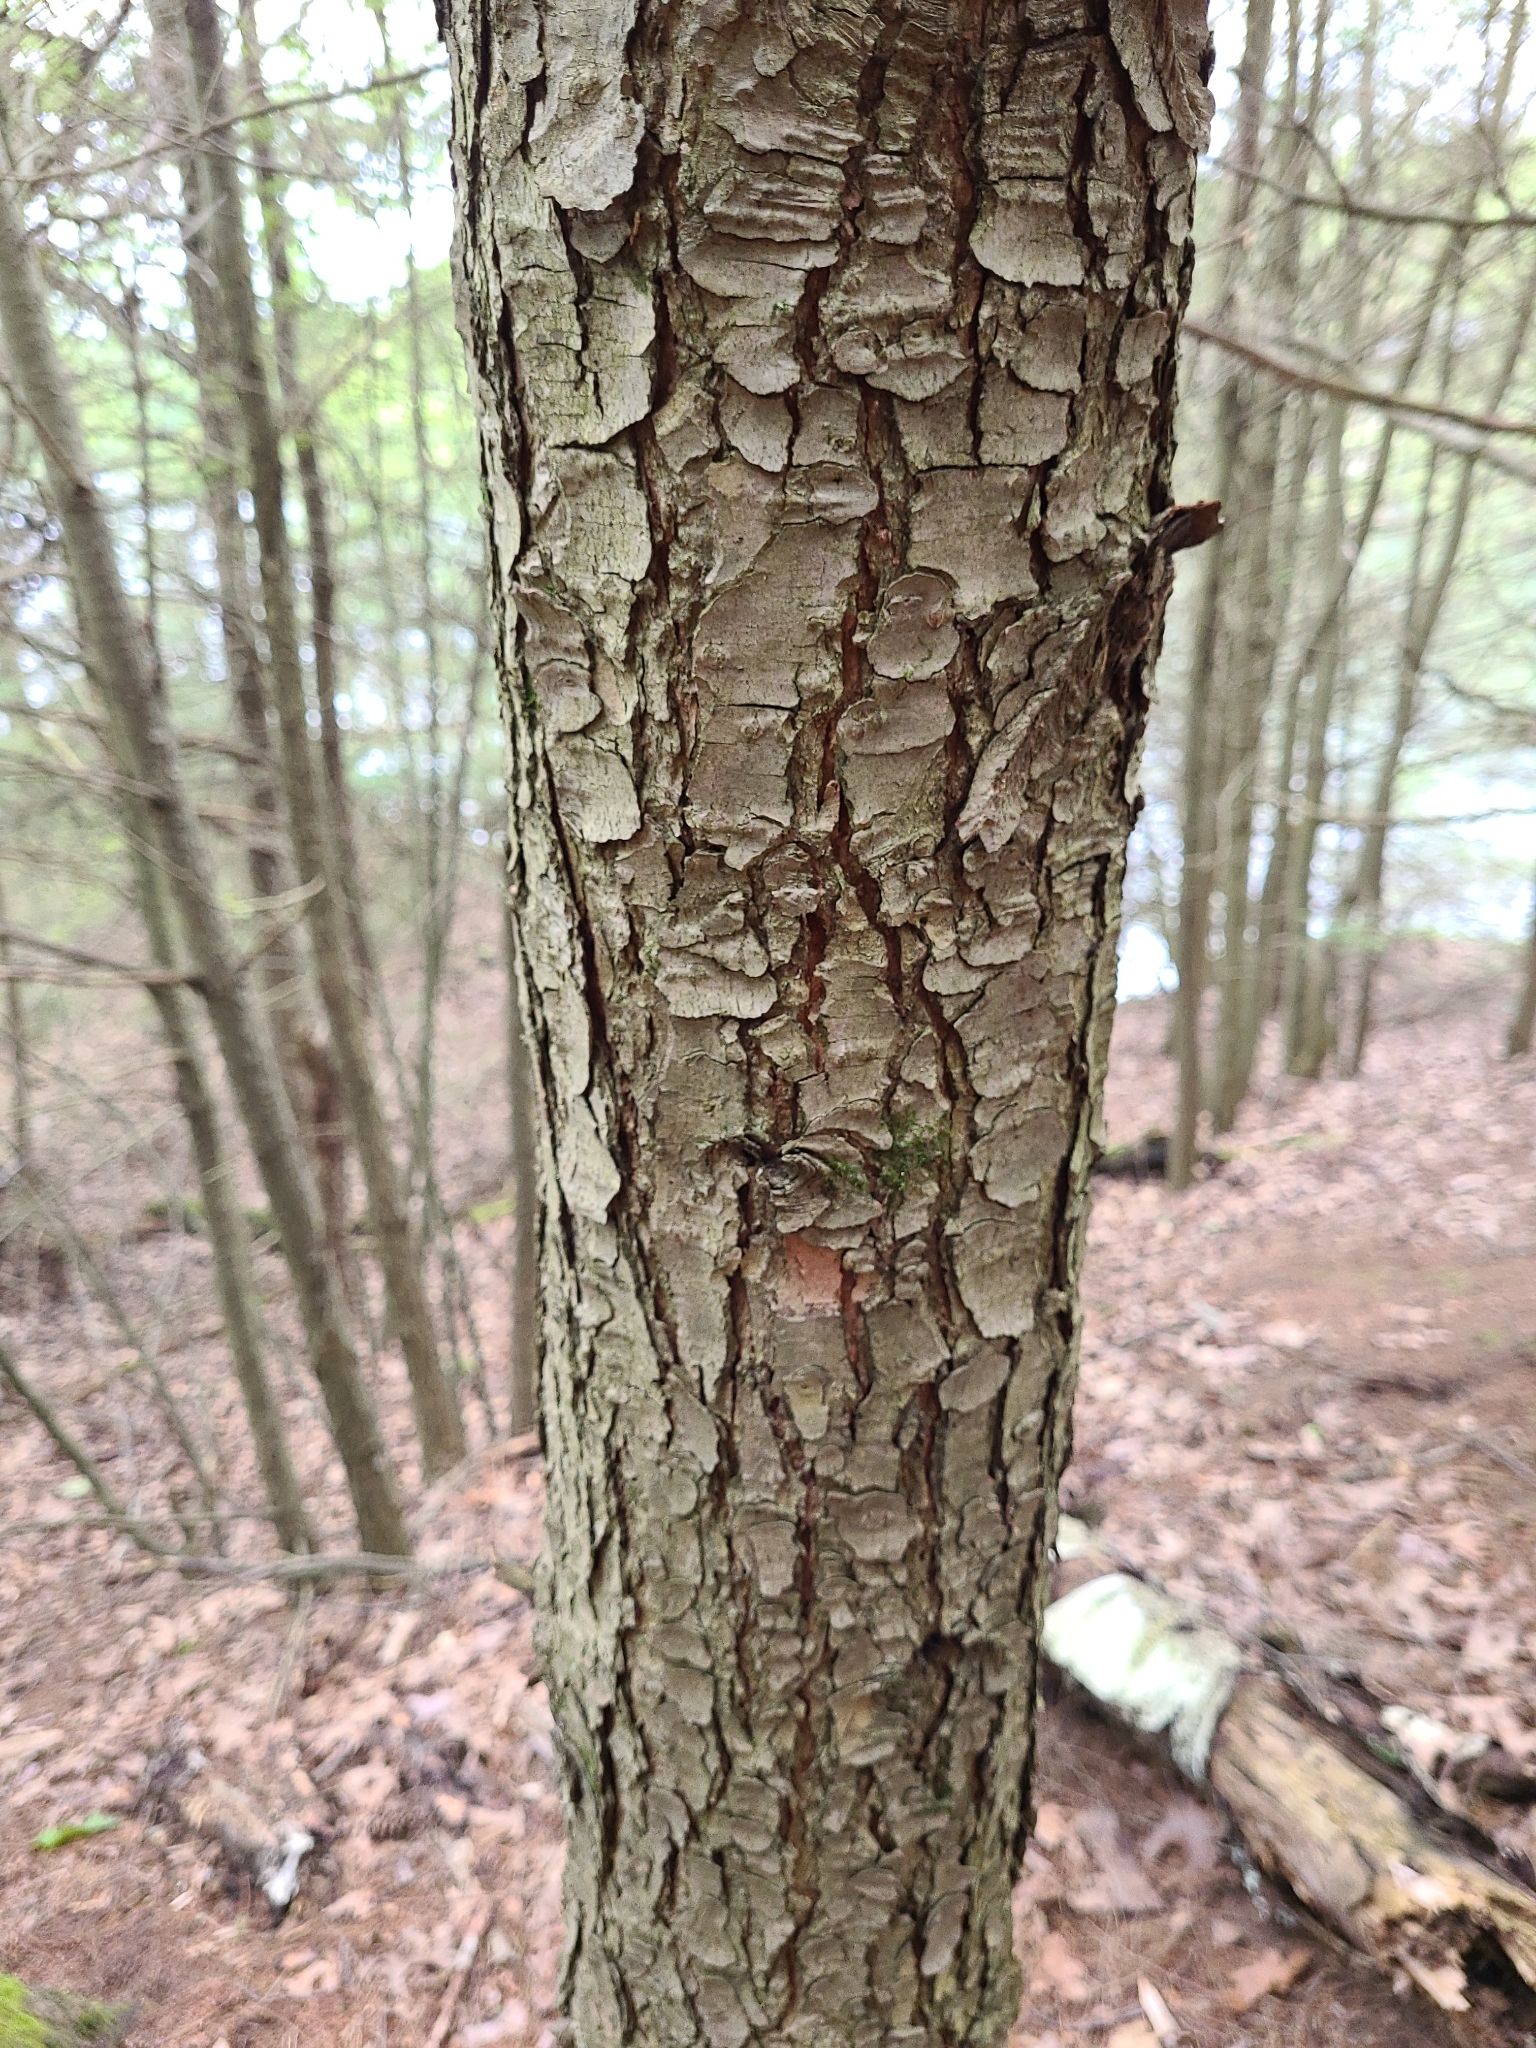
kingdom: Plantae
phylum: Tracheophyta
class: Pinopsida
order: Pinales
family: Pinaceae
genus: Tsuga
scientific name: Tsuga canadensis
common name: Eastern hemlock
